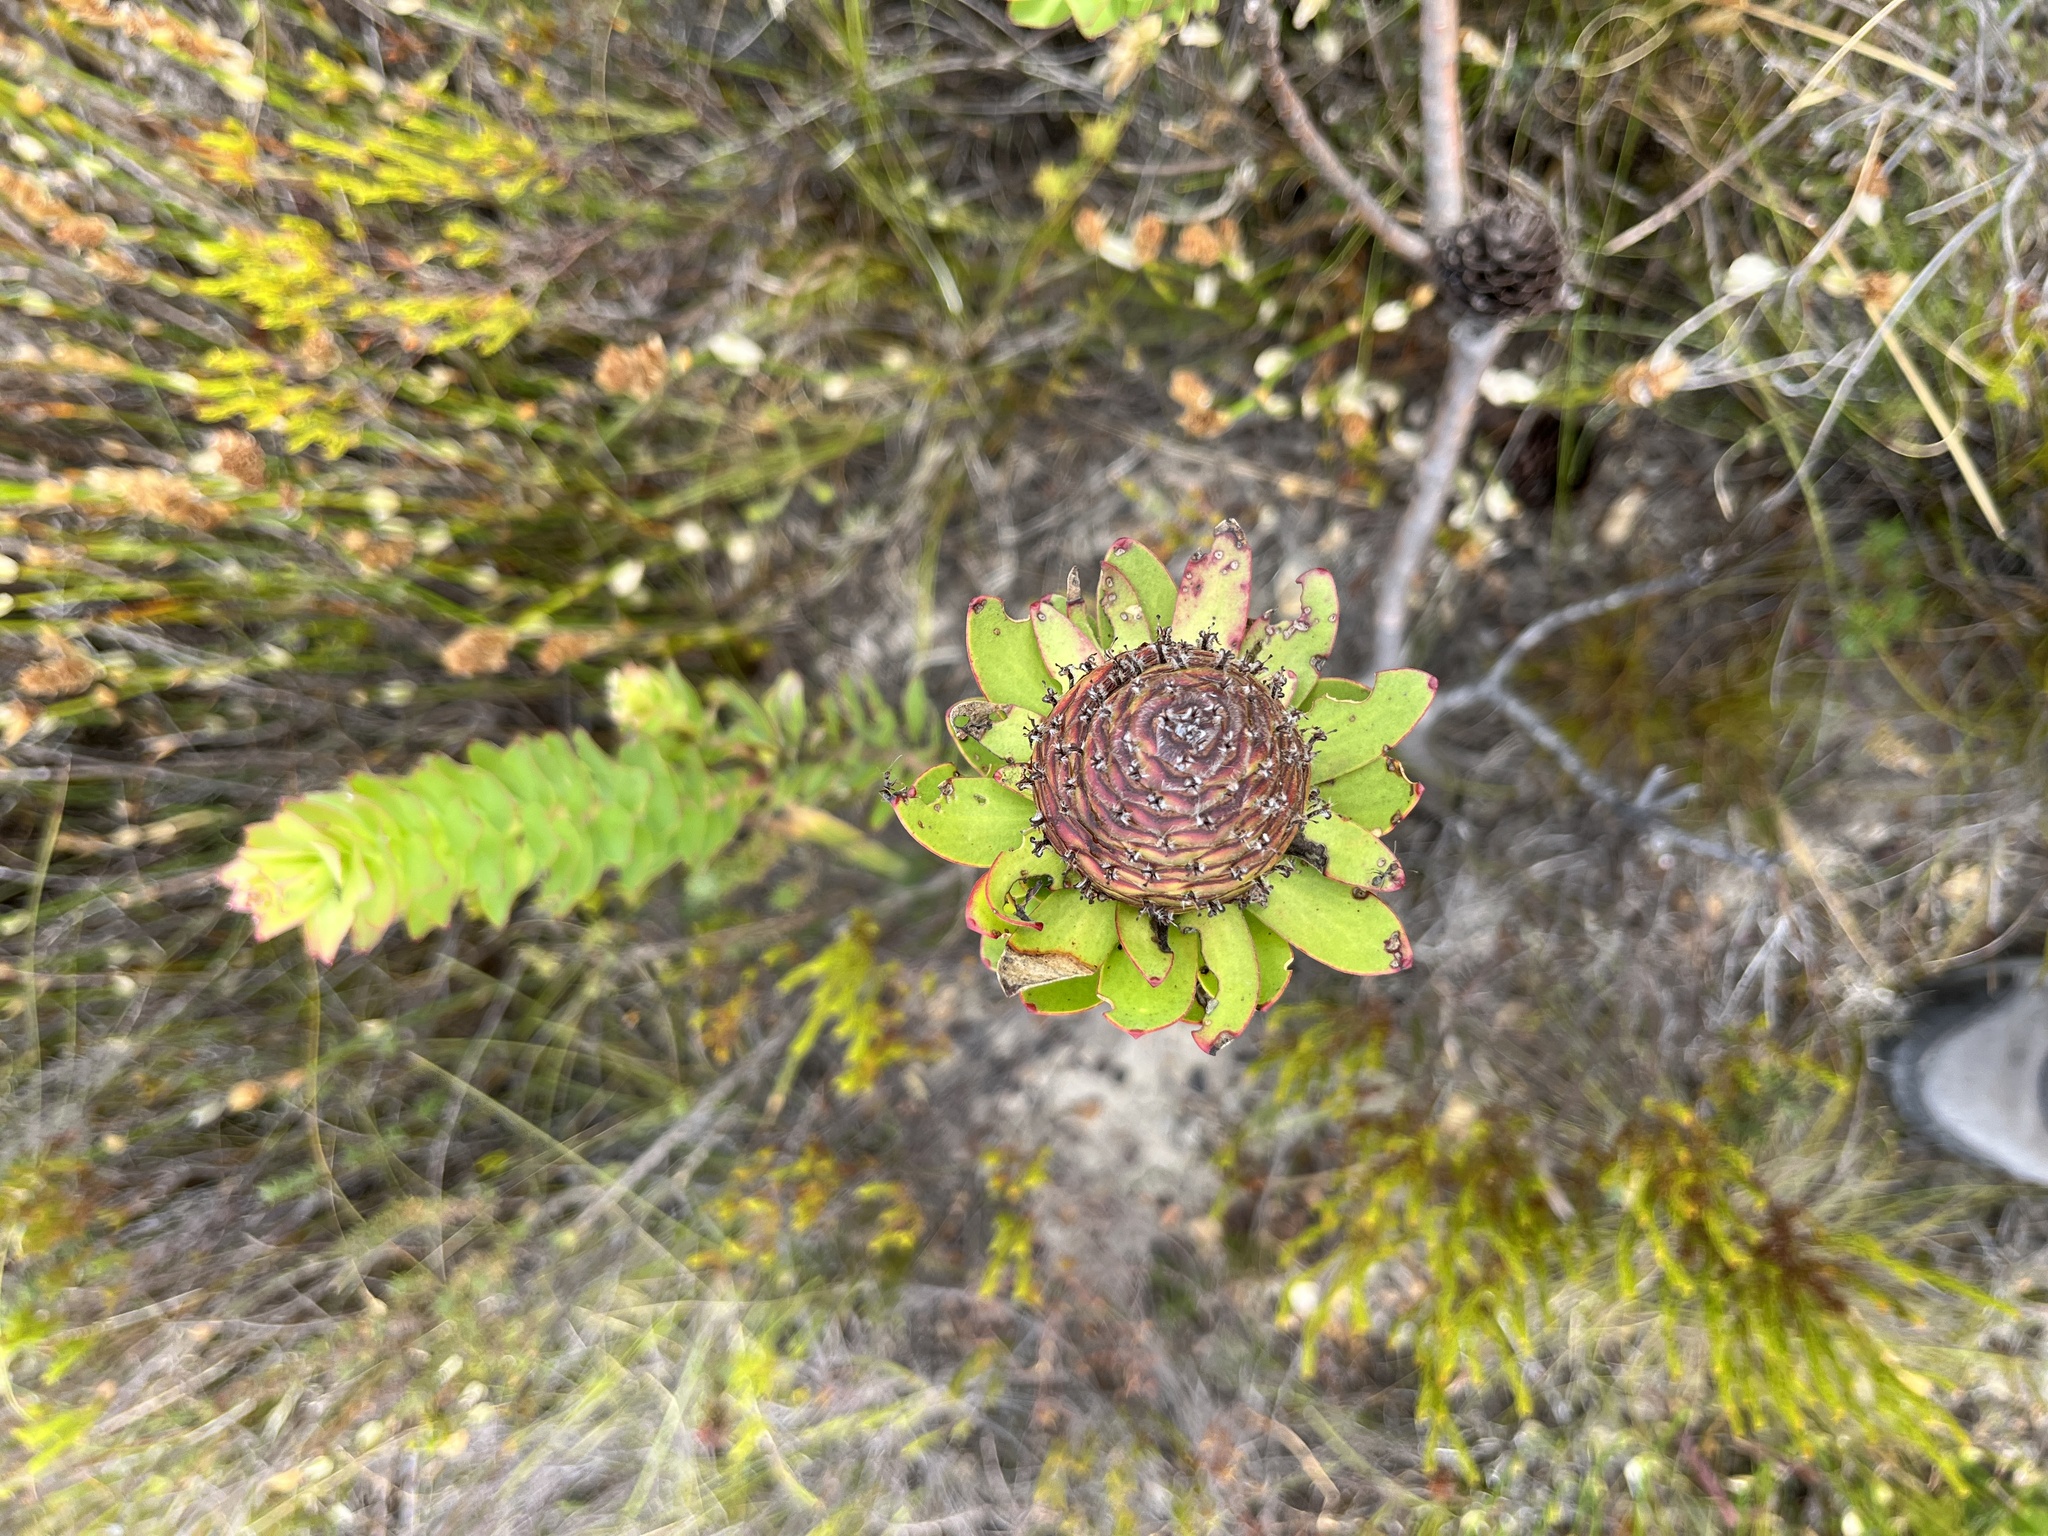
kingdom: Plantae
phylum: Tracheophyta
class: Magnoliopsida
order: Proteales
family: Proteaceae
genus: Leucadendron
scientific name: Leucadendron elimense
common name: Elim conebush
